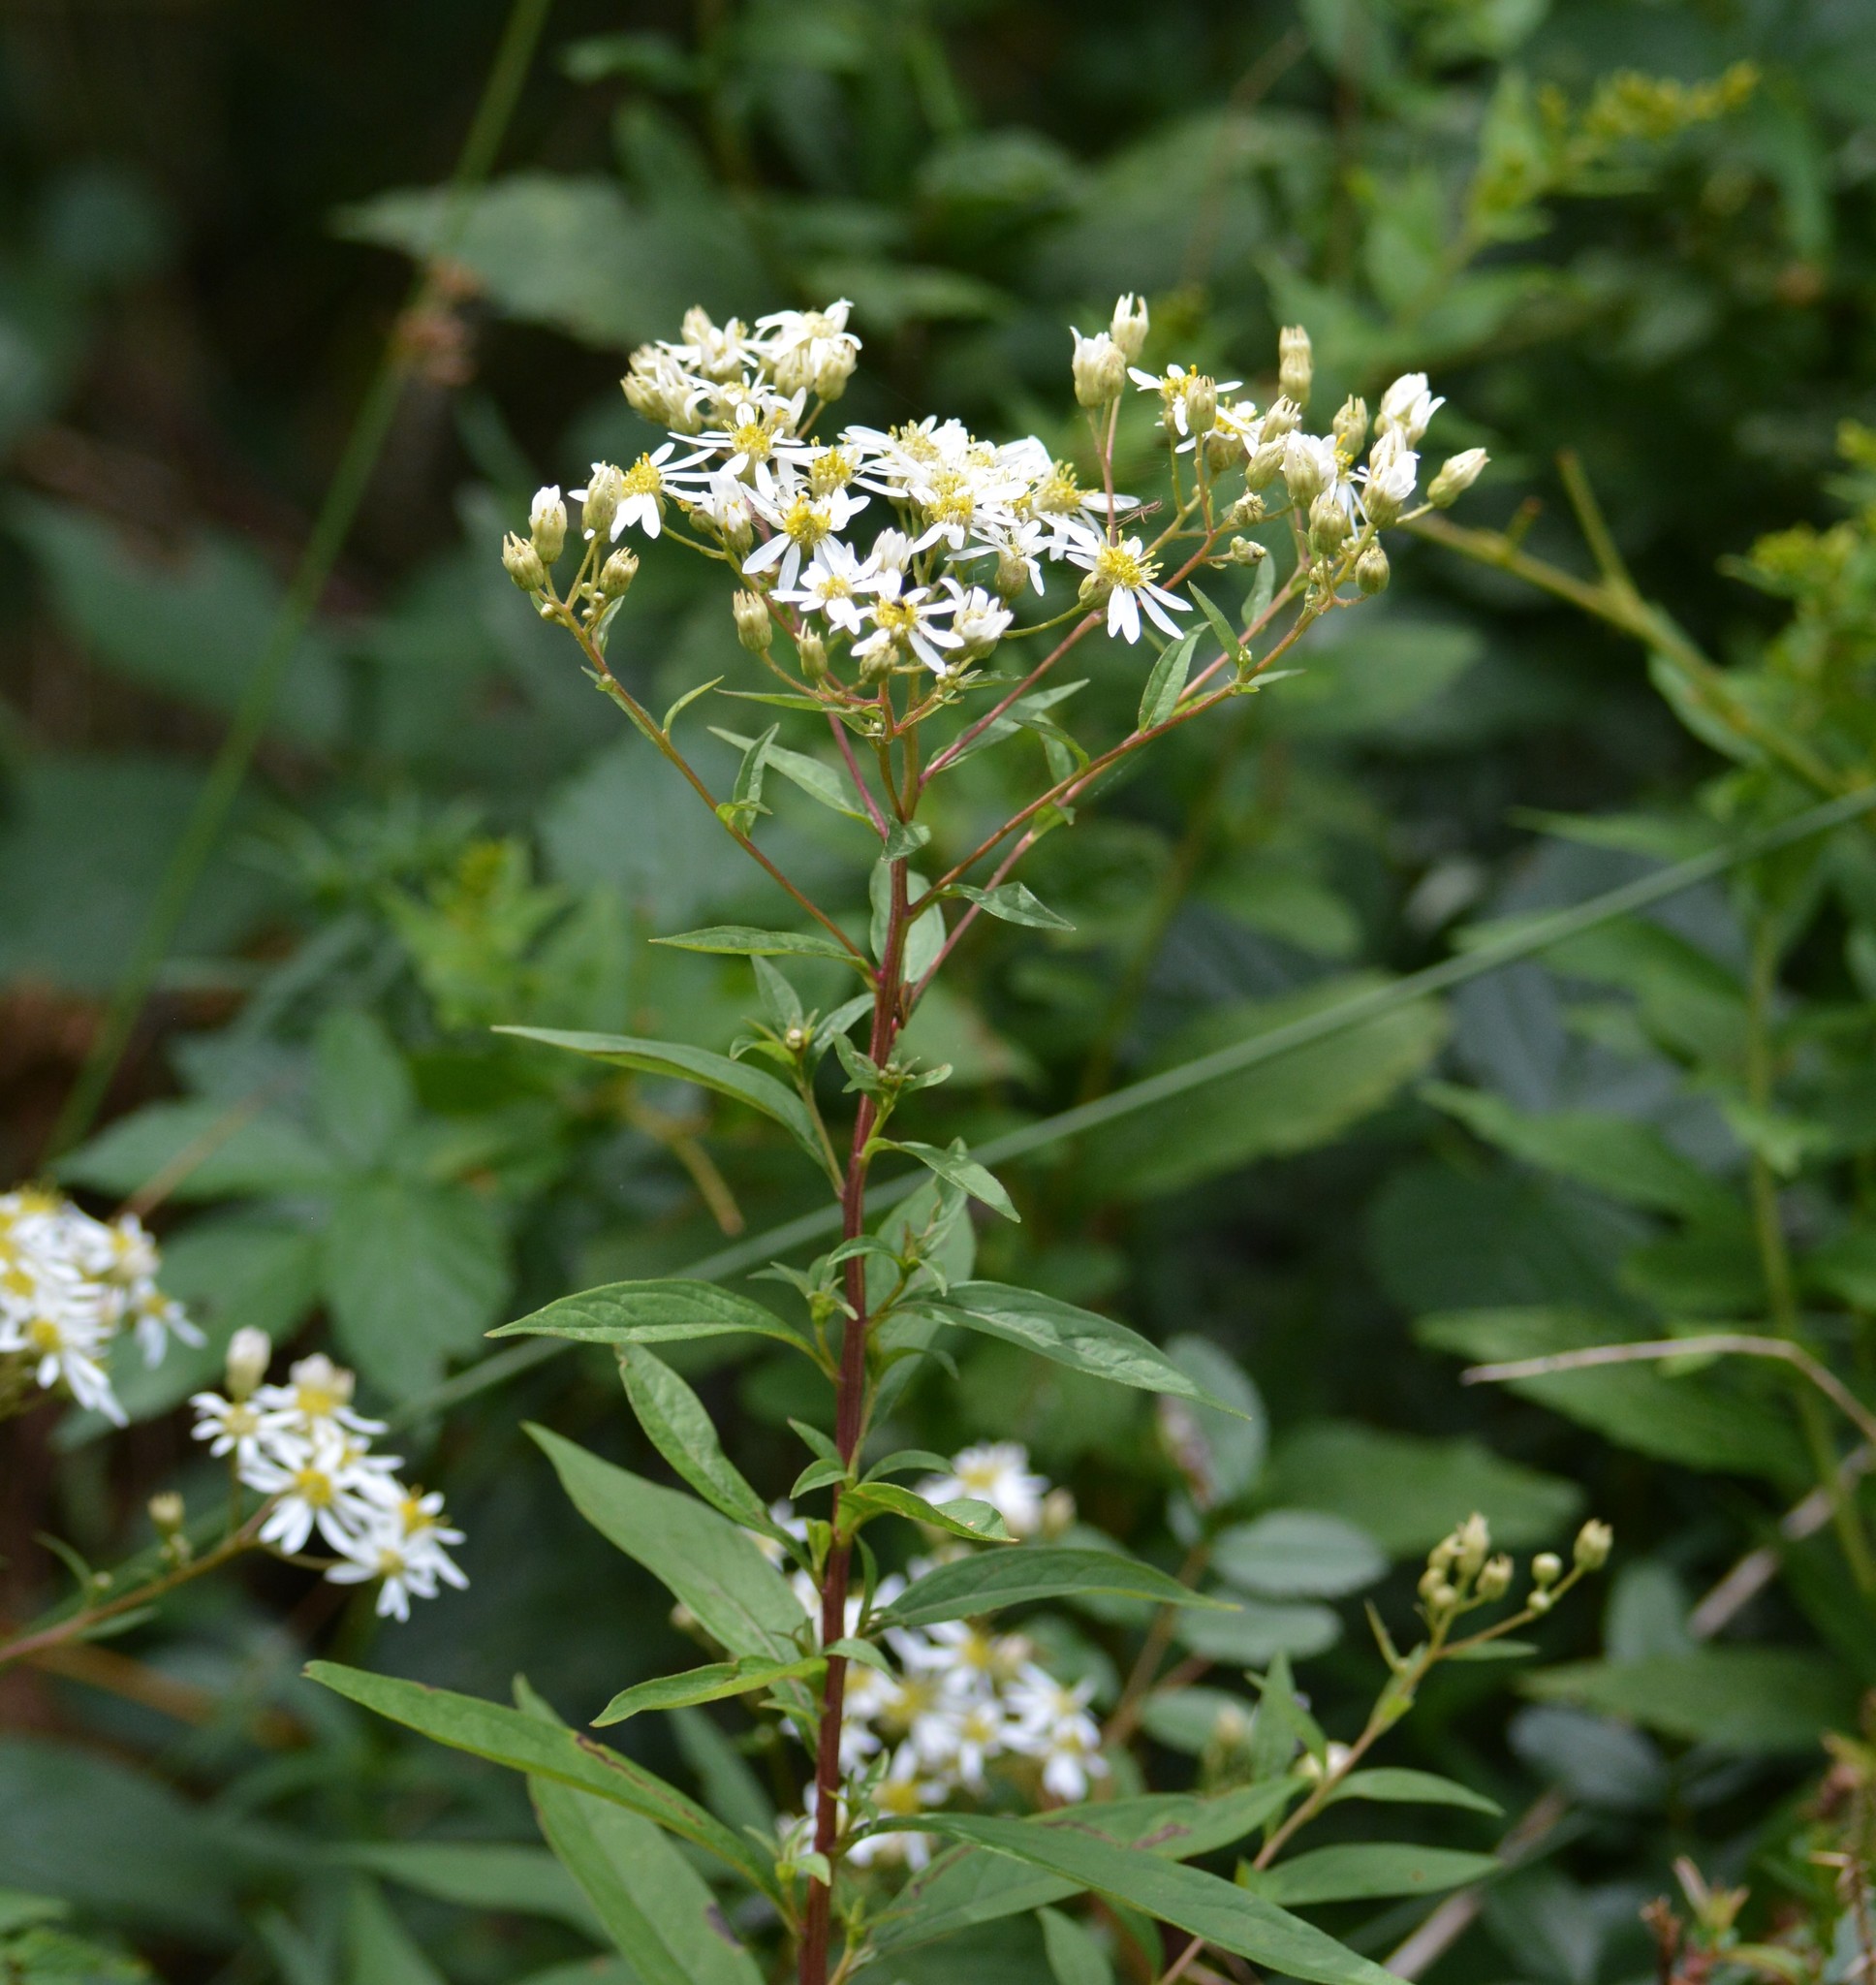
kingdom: Plantae
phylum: Tracheophyta
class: Magnoliopsida
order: Asterales
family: Asteraceae
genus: Doellingeria
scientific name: Doellingeria umbellata
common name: Flat-top white aster
